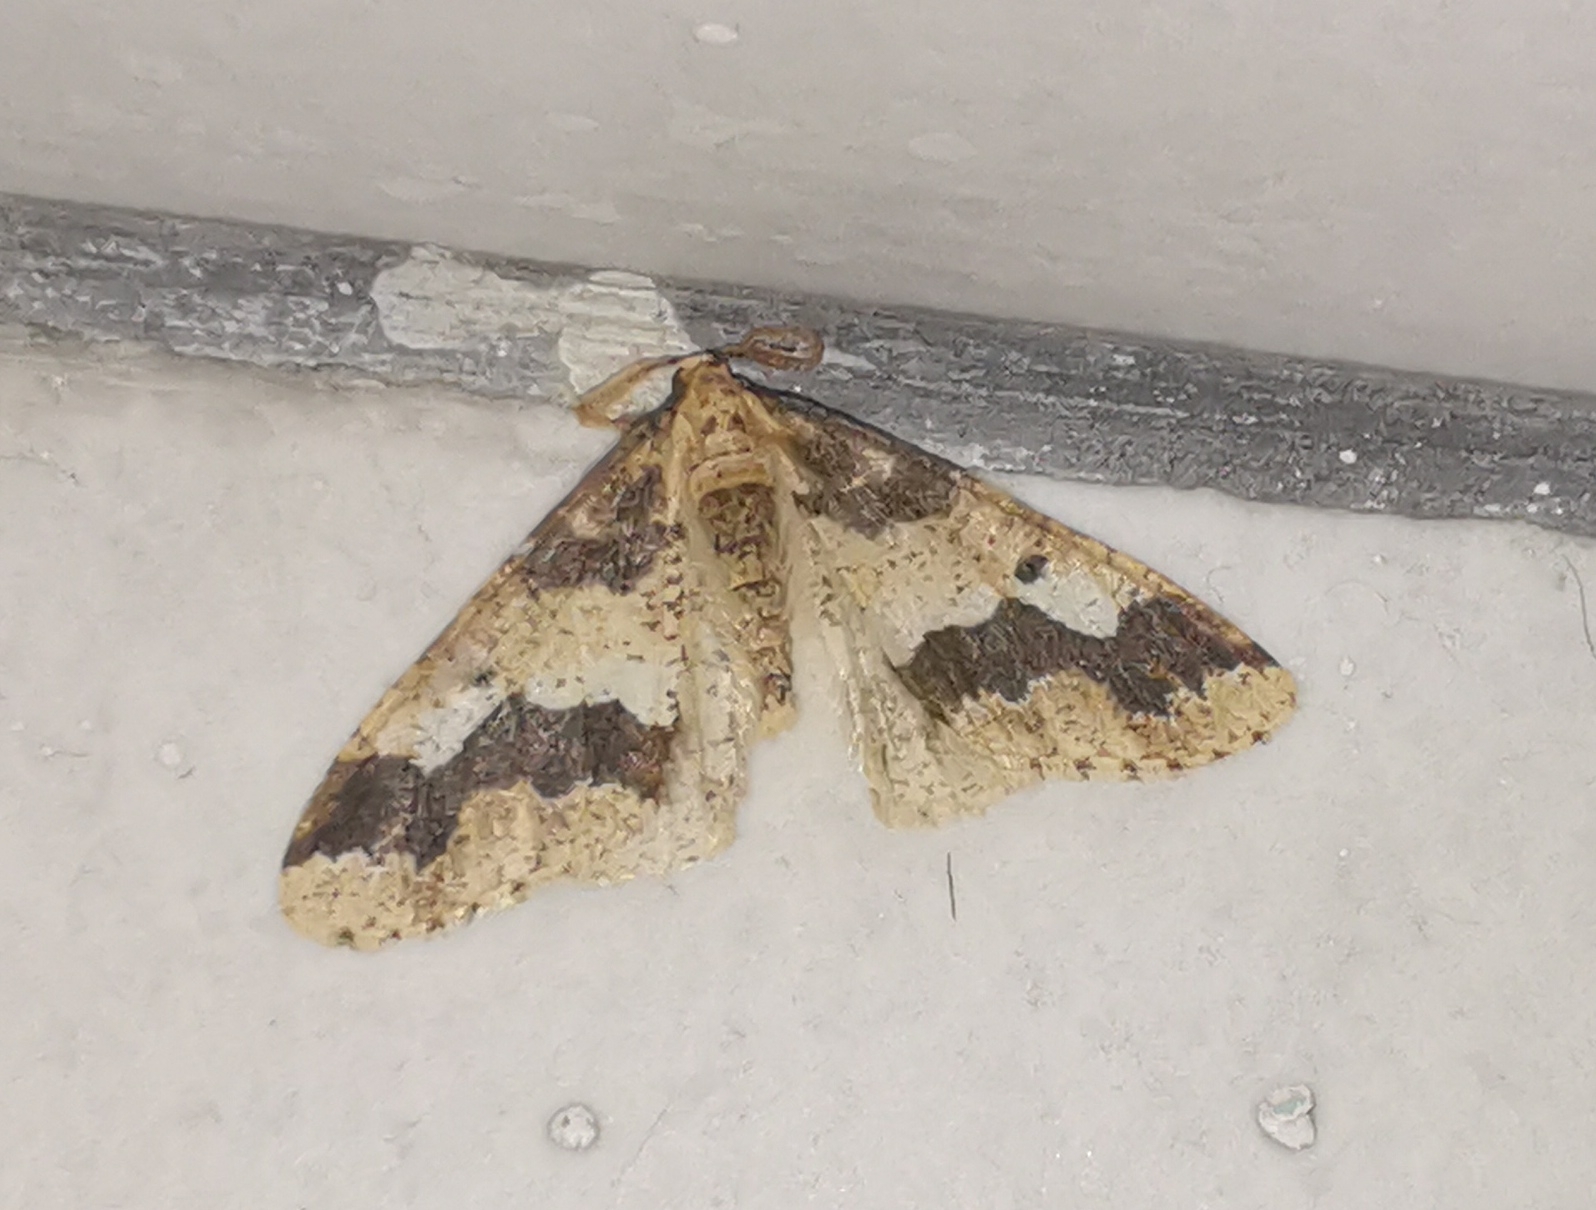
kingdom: Animalia
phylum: Arthropoda
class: Insecta
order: Lepidoptera
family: Geometridae
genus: Erannis
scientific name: Erannis defoliaria
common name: Mottled umber
